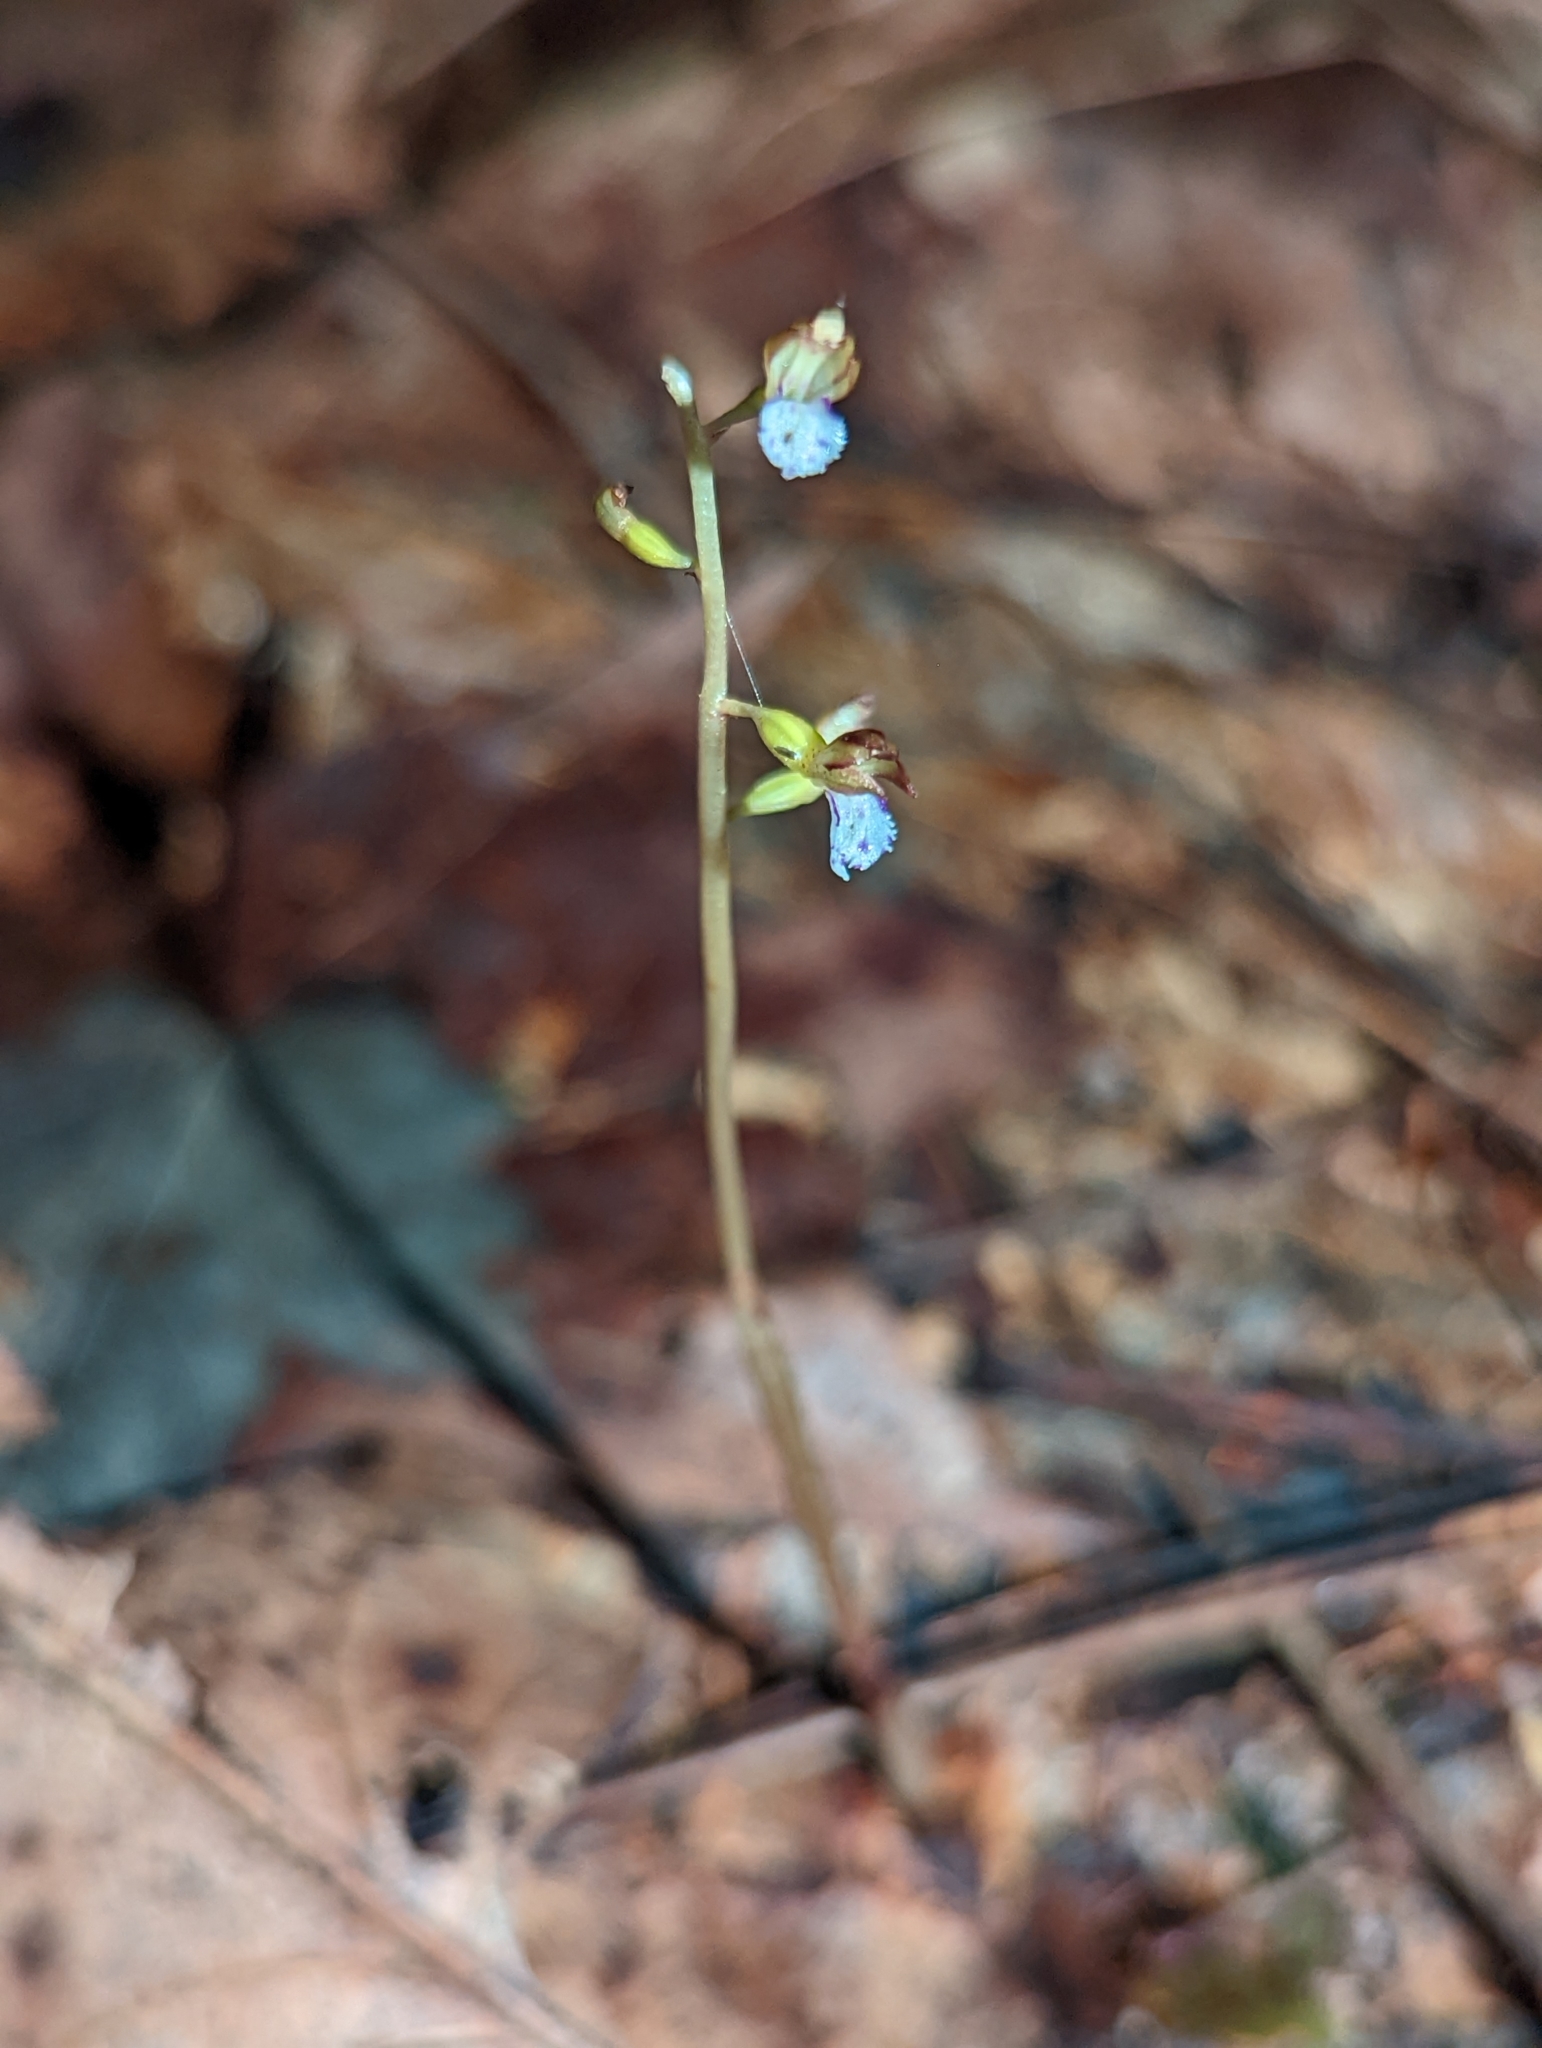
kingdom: Plantae
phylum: Tracheophyta
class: Liliopsida
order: Asparagales
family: Orchidaceae
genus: Corallorhiza
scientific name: Corallorhiza odontorhiza
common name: Autumn coralroot
